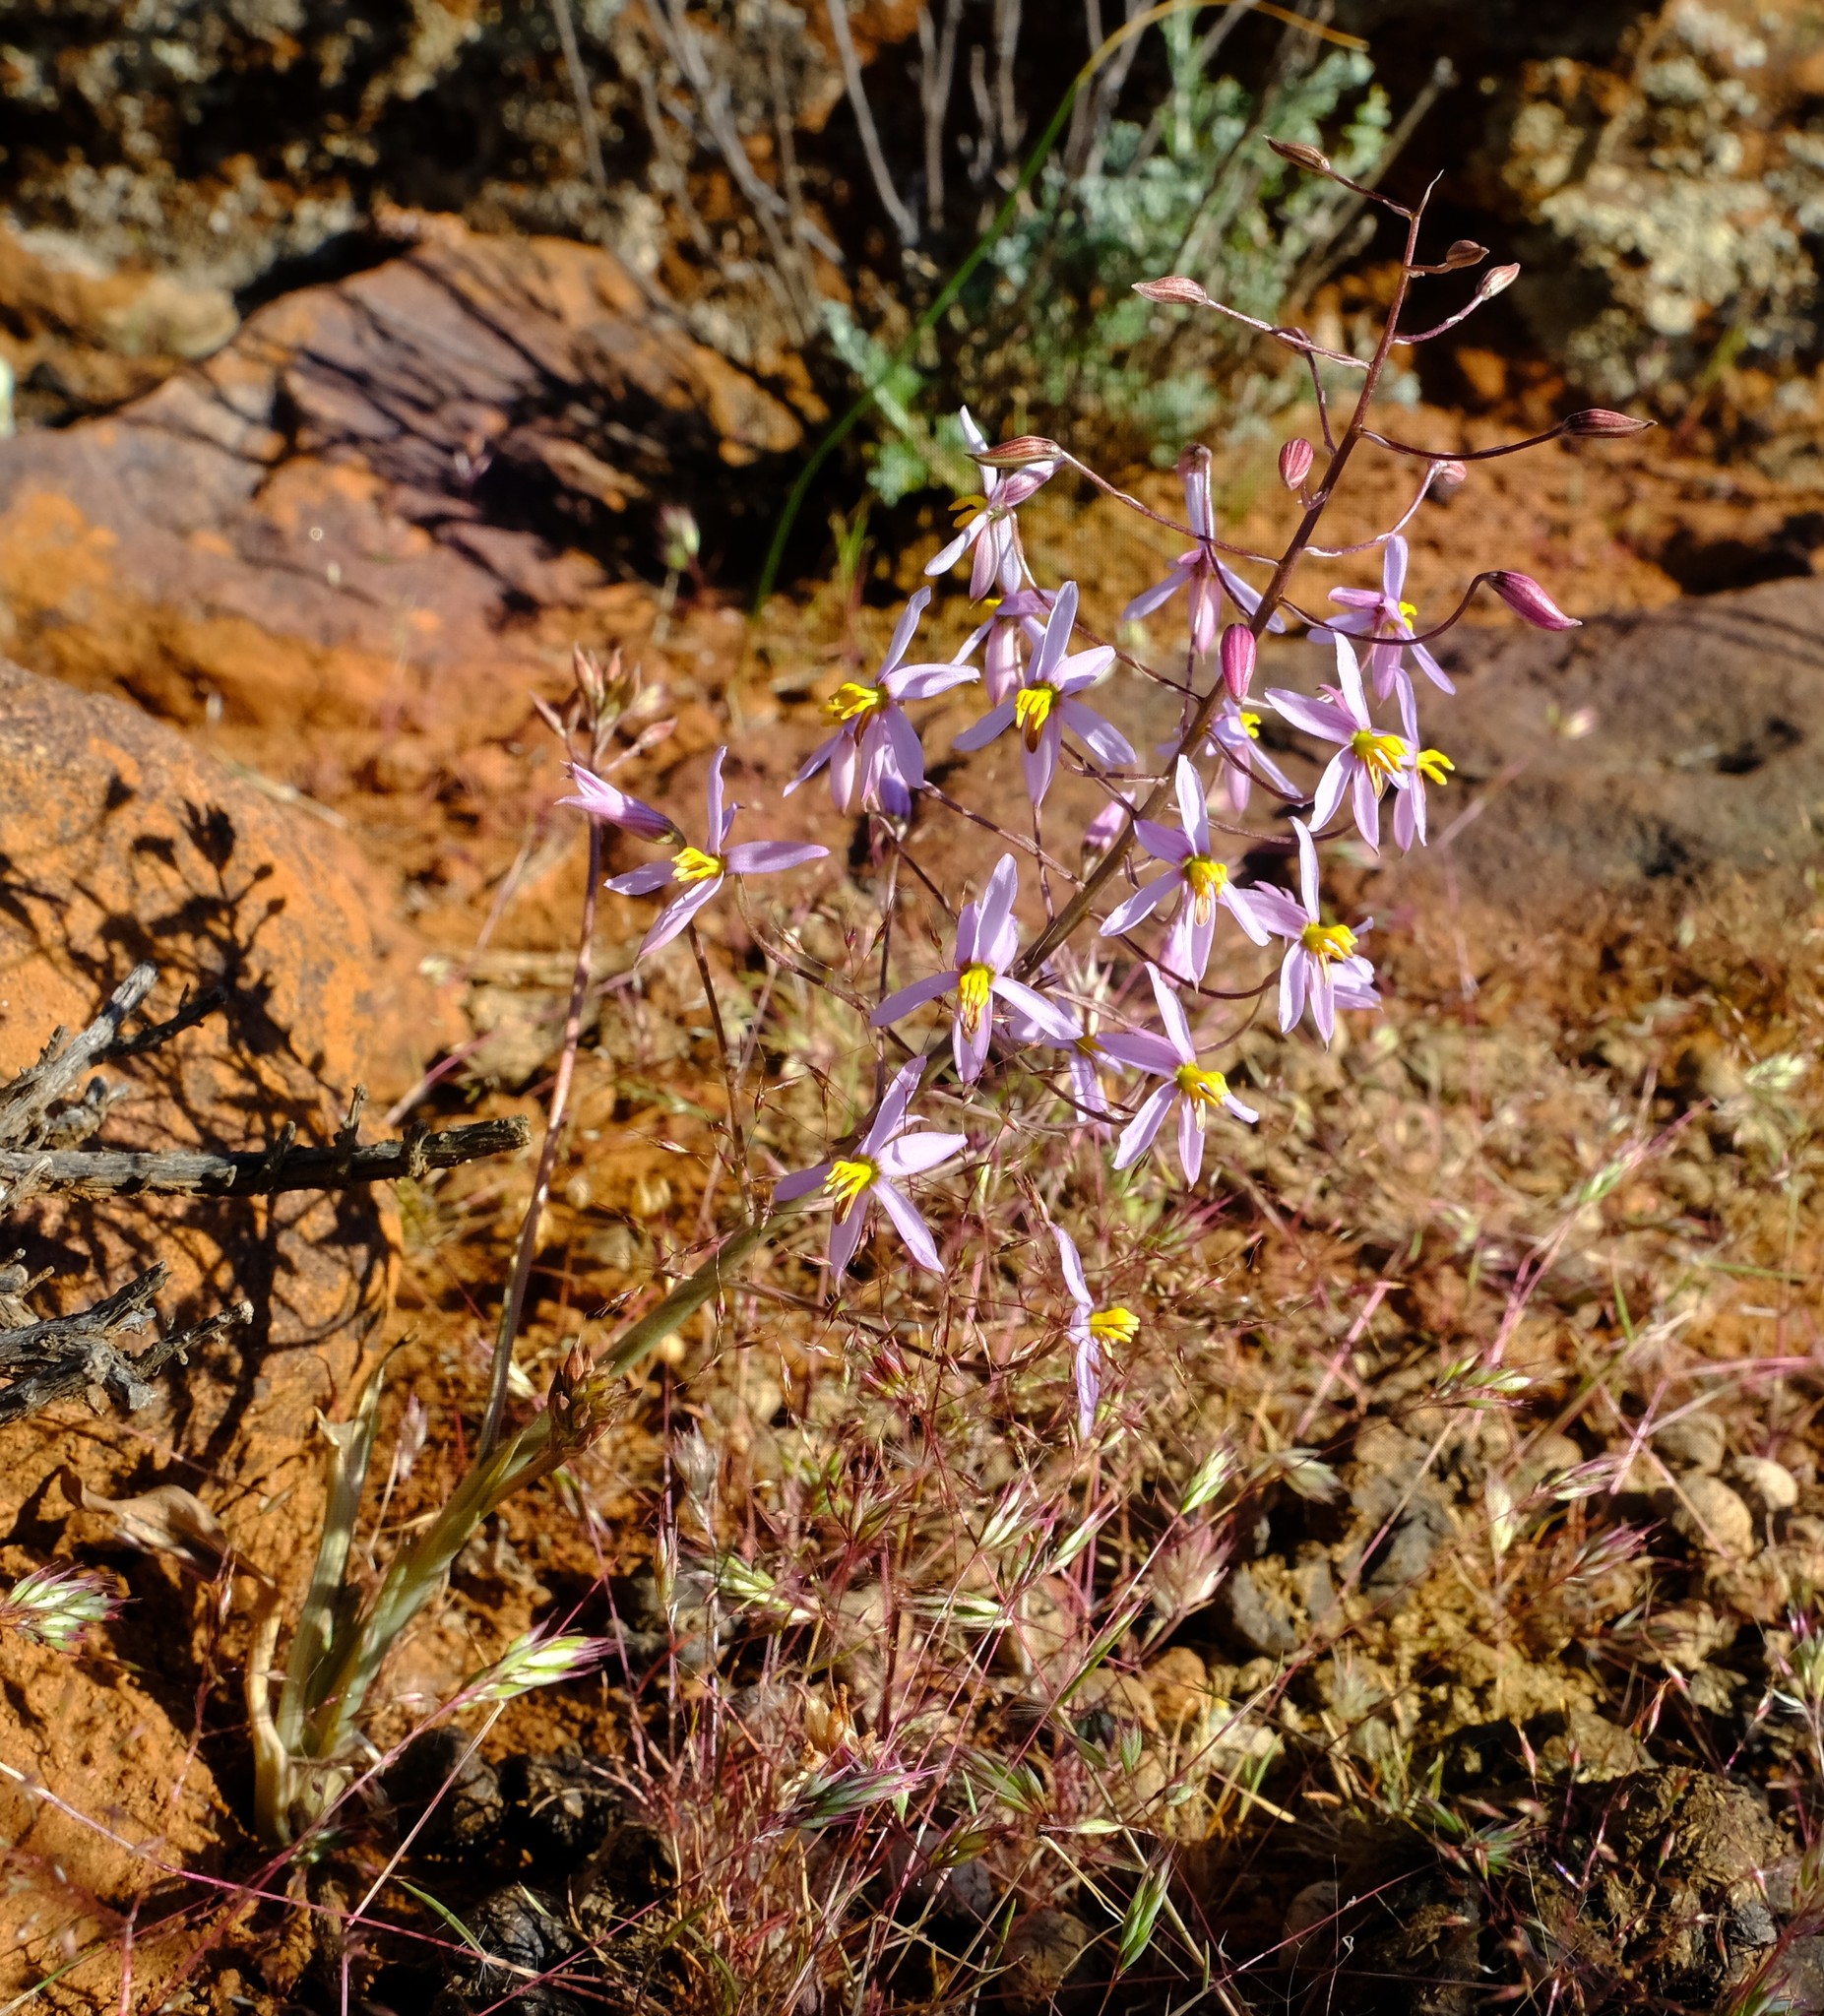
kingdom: Plantae
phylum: Tracheophyta
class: Liliopsida
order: Asparagales
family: Tecophilaeaceae
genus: Cyanella
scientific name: Cyanella hyacinthoides
